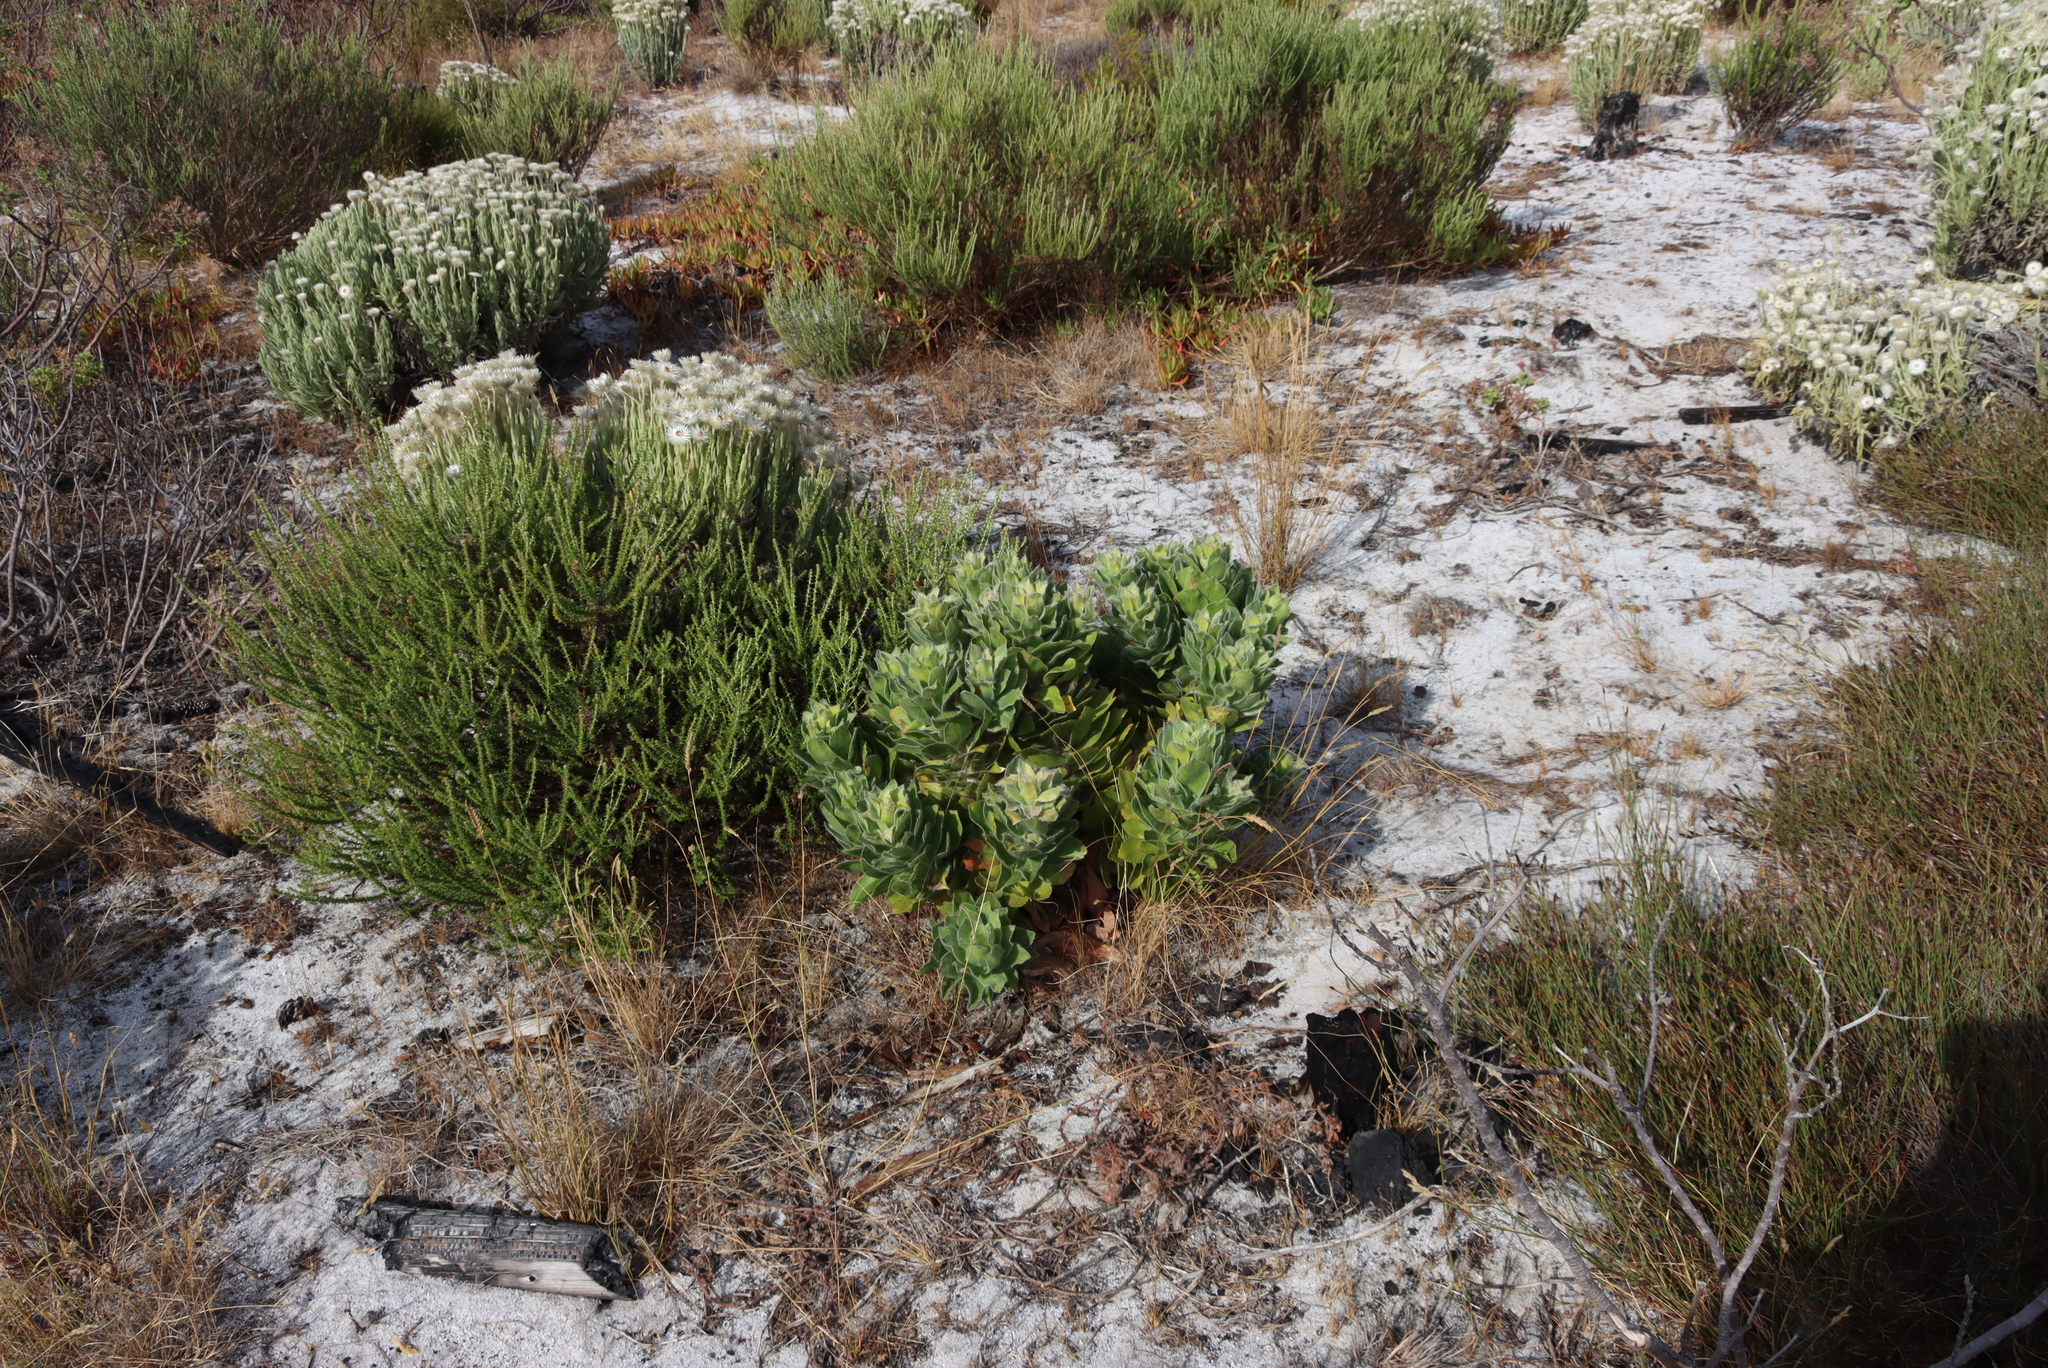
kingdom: Plantae
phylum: Tracheophyta
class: Magnoliopsida
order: Proteales
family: Proteaceae
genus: Leucospermum
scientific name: Leucospermum conocarpodendron
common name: Tree pincushion
